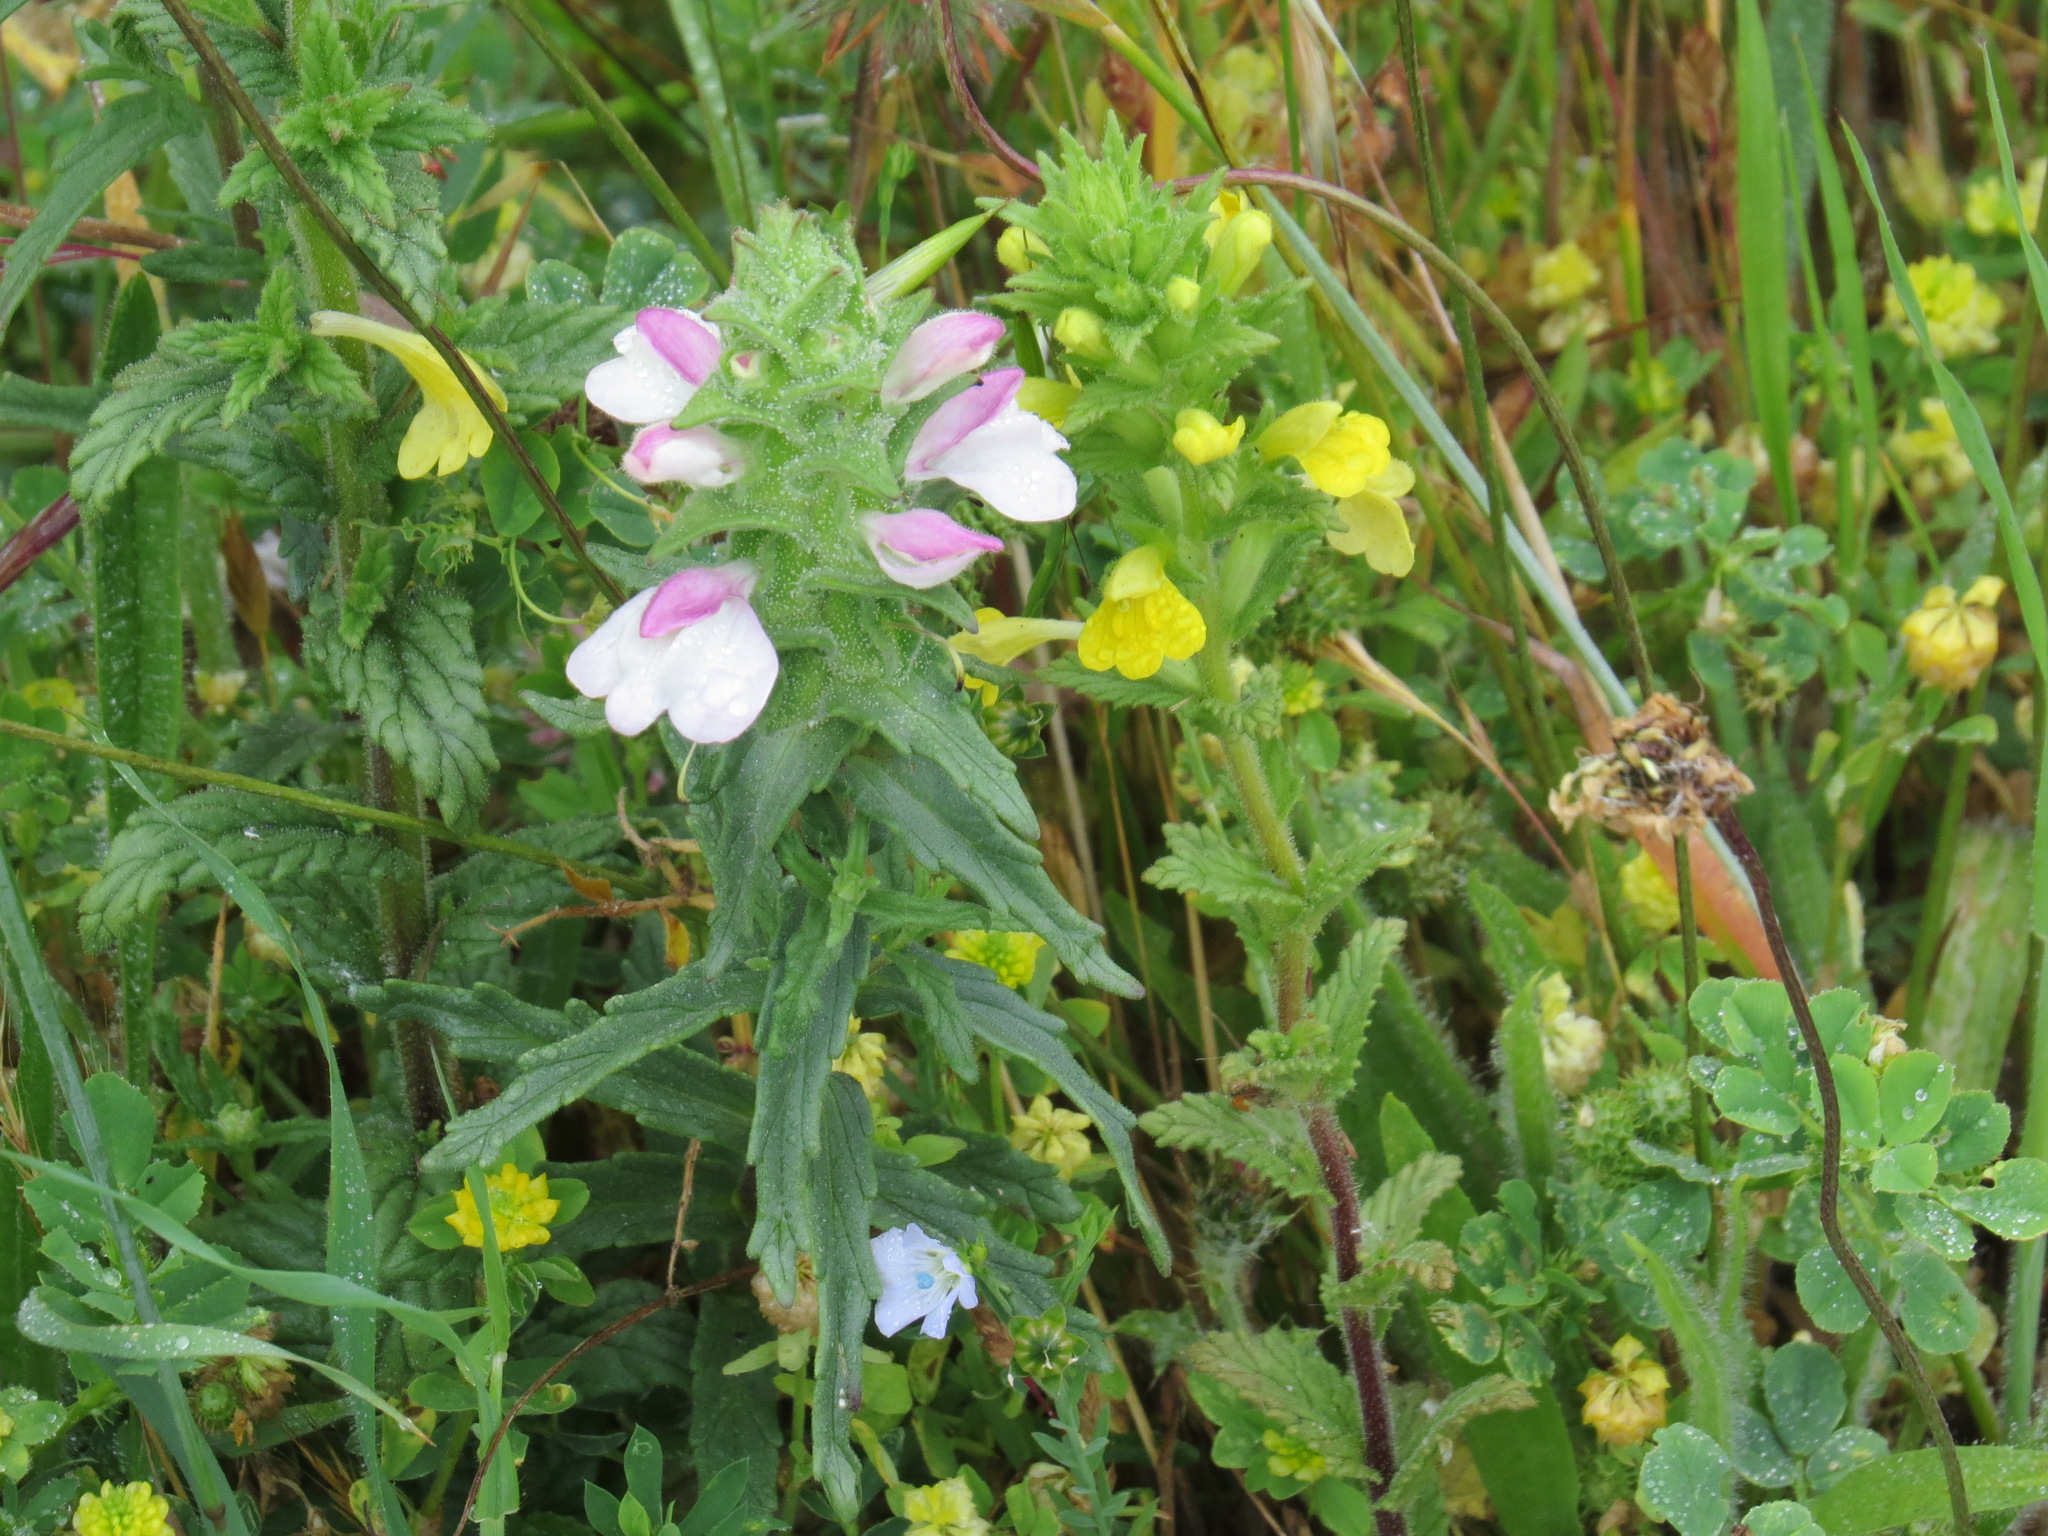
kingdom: Plantae
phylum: Tracheophyta
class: Magnoliopsida
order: Lamiales
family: Orobanchaceae
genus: Bellardia
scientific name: Bellardia trixago
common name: Mediterranean lineseed
